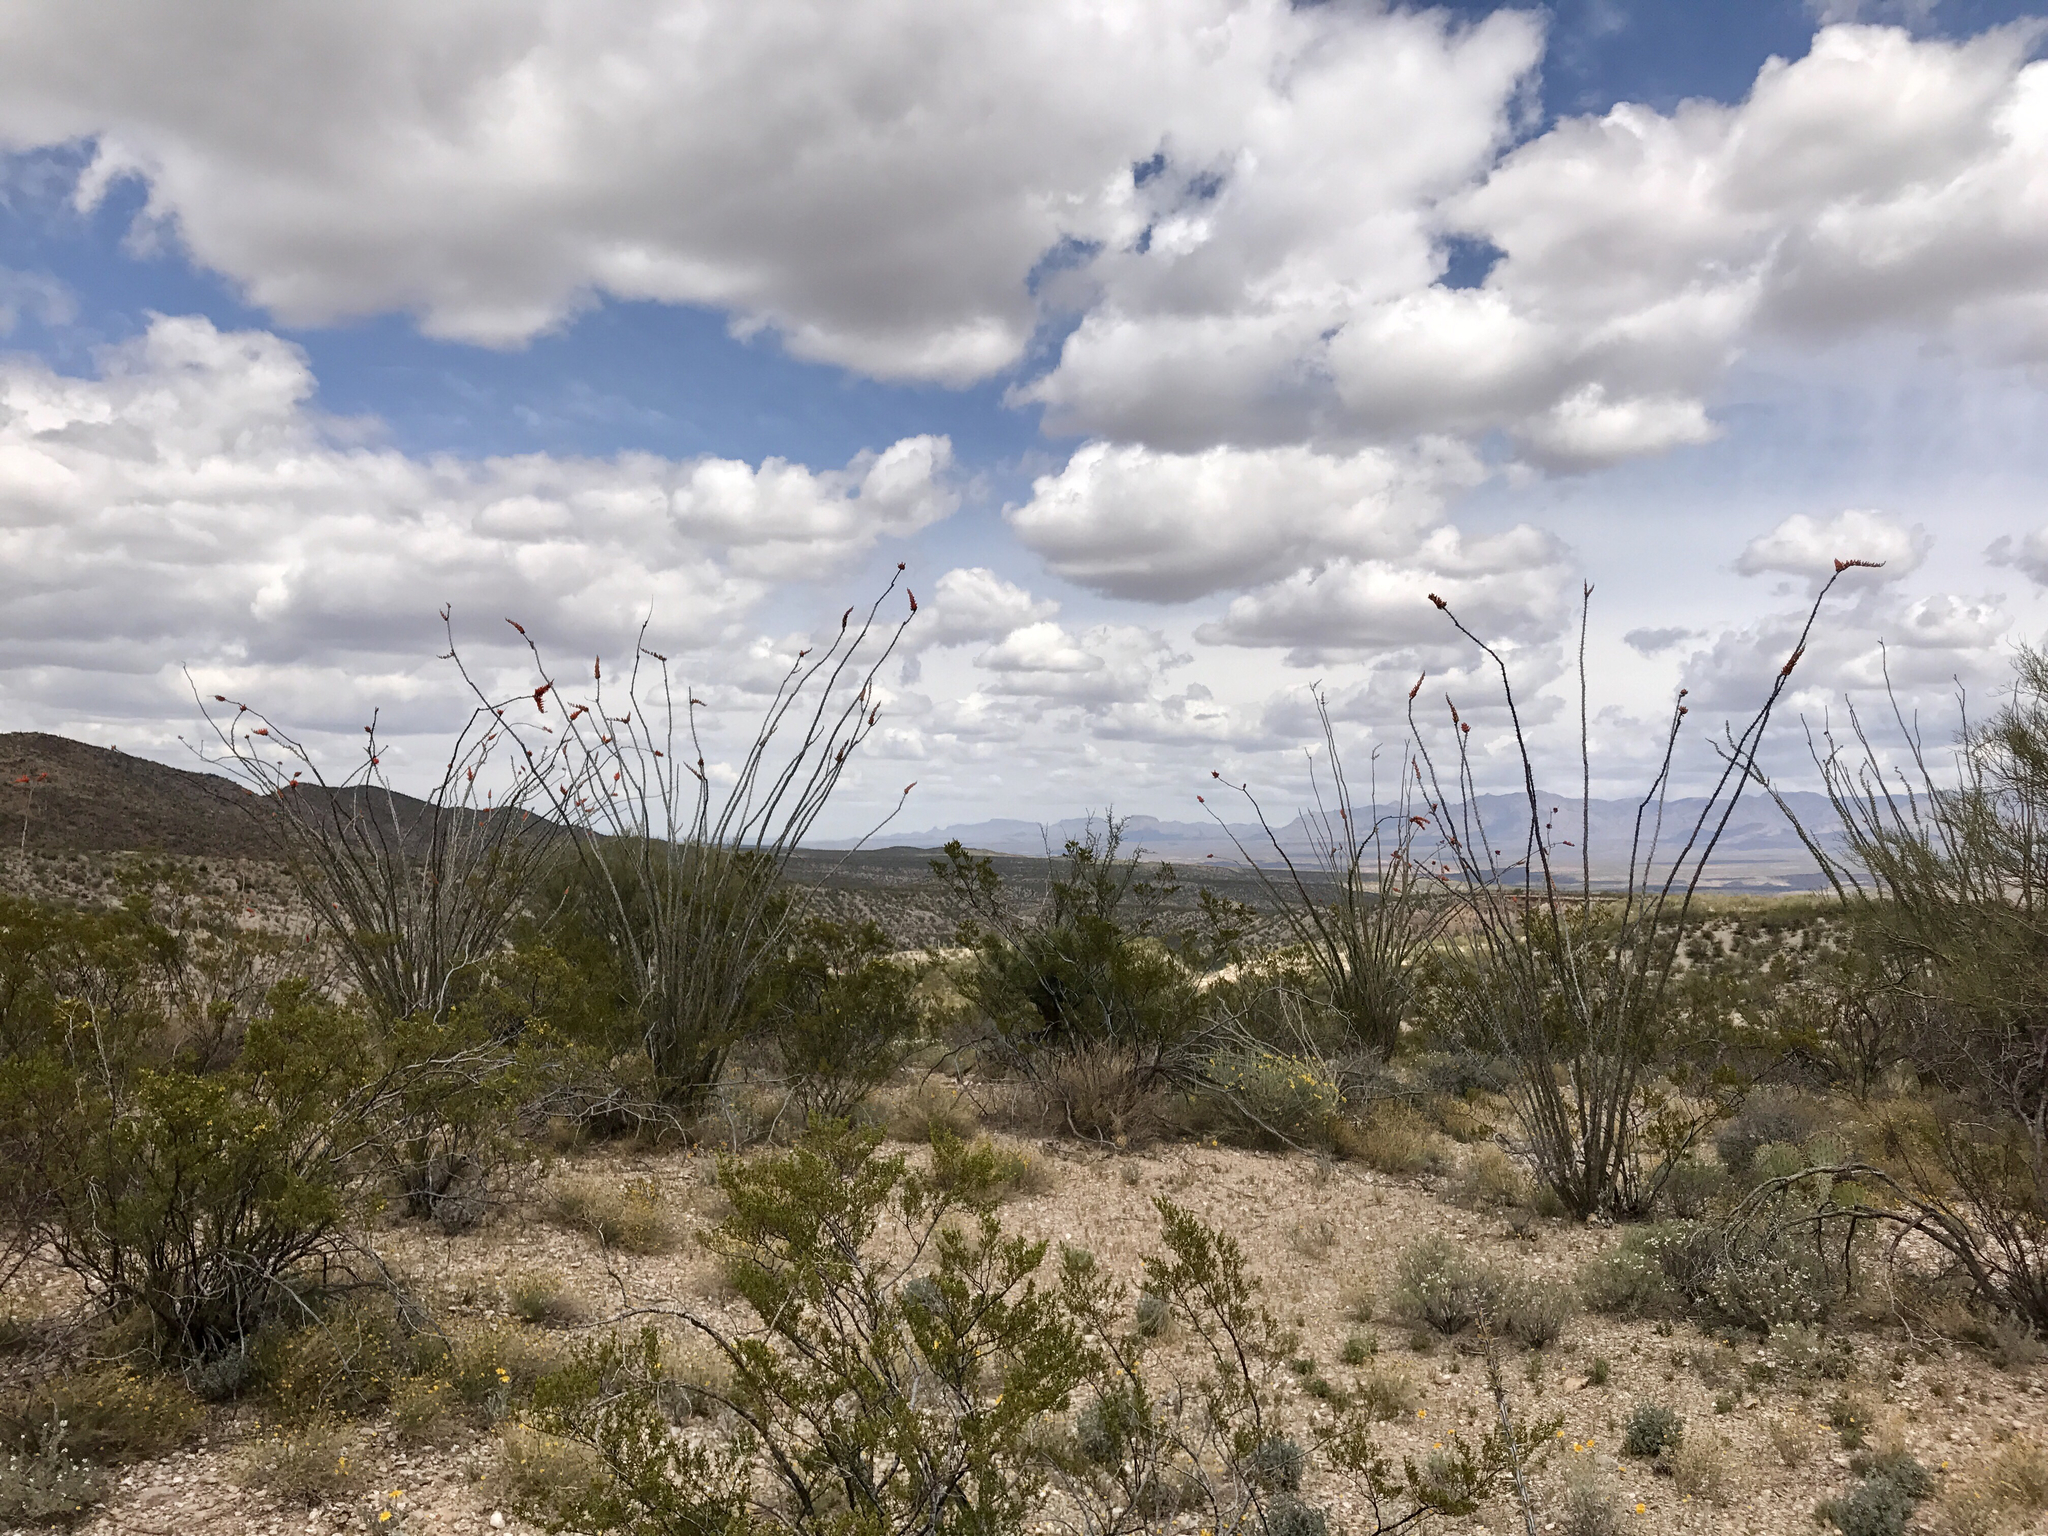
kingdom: Plantae
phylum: Tracheophyta
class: Magnoliopsida
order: Ericales
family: Fouquieriaceae
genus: Fouquieria
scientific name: Fouquieria splendens
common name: Vine-cactus
